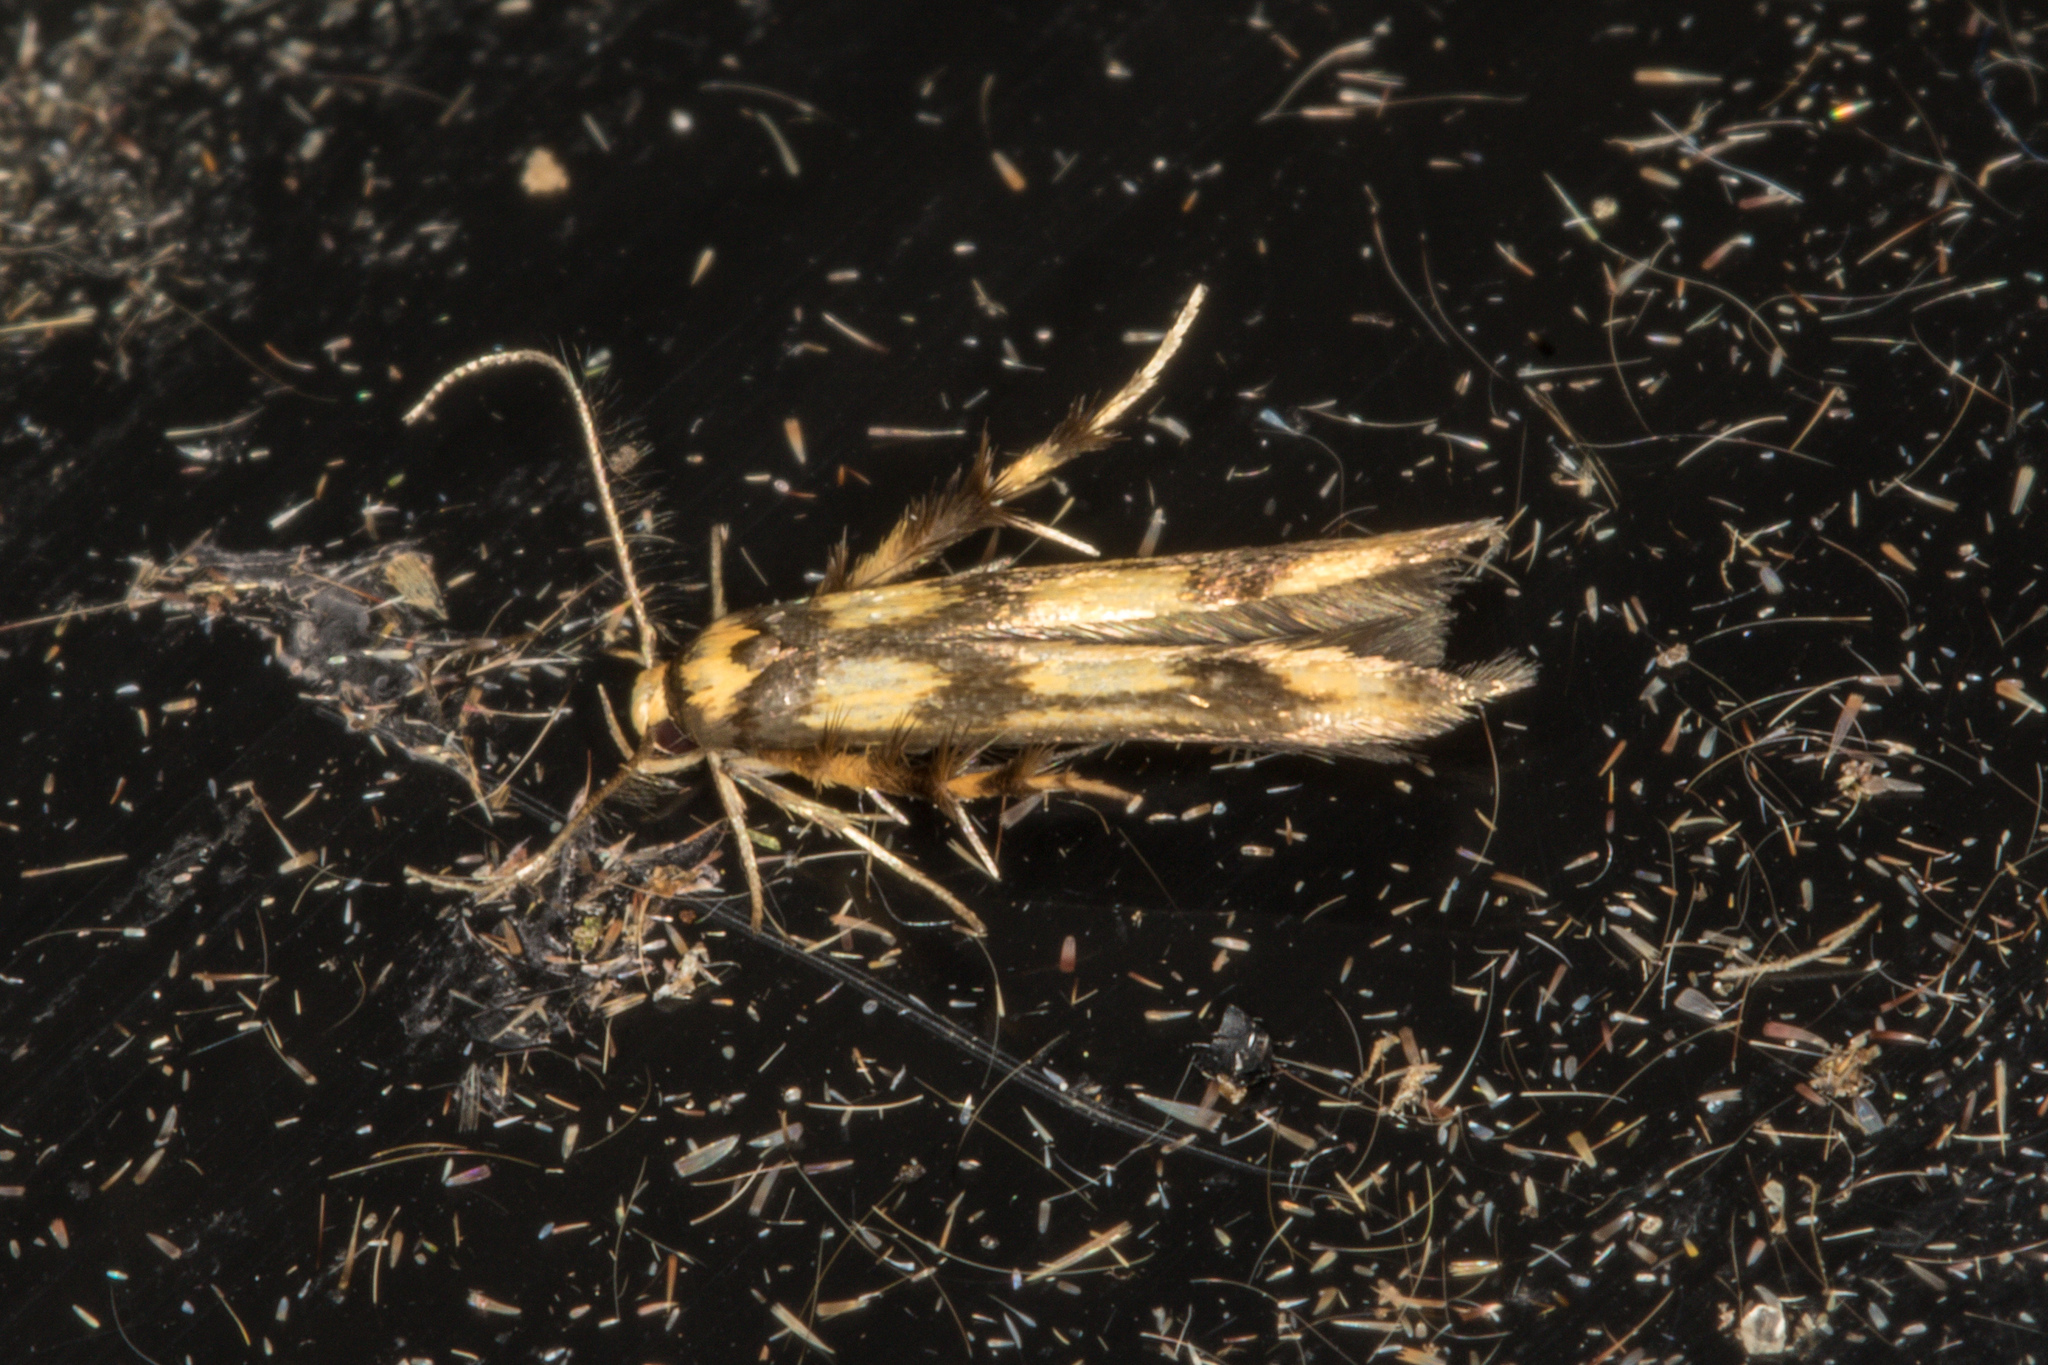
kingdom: Animalia
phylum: Arthropoda
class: Insecta
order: Lepidoptera
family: Stathmopodidae
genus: Stathmopoda
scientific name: Stathmopoda pedella
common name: Alder signal
